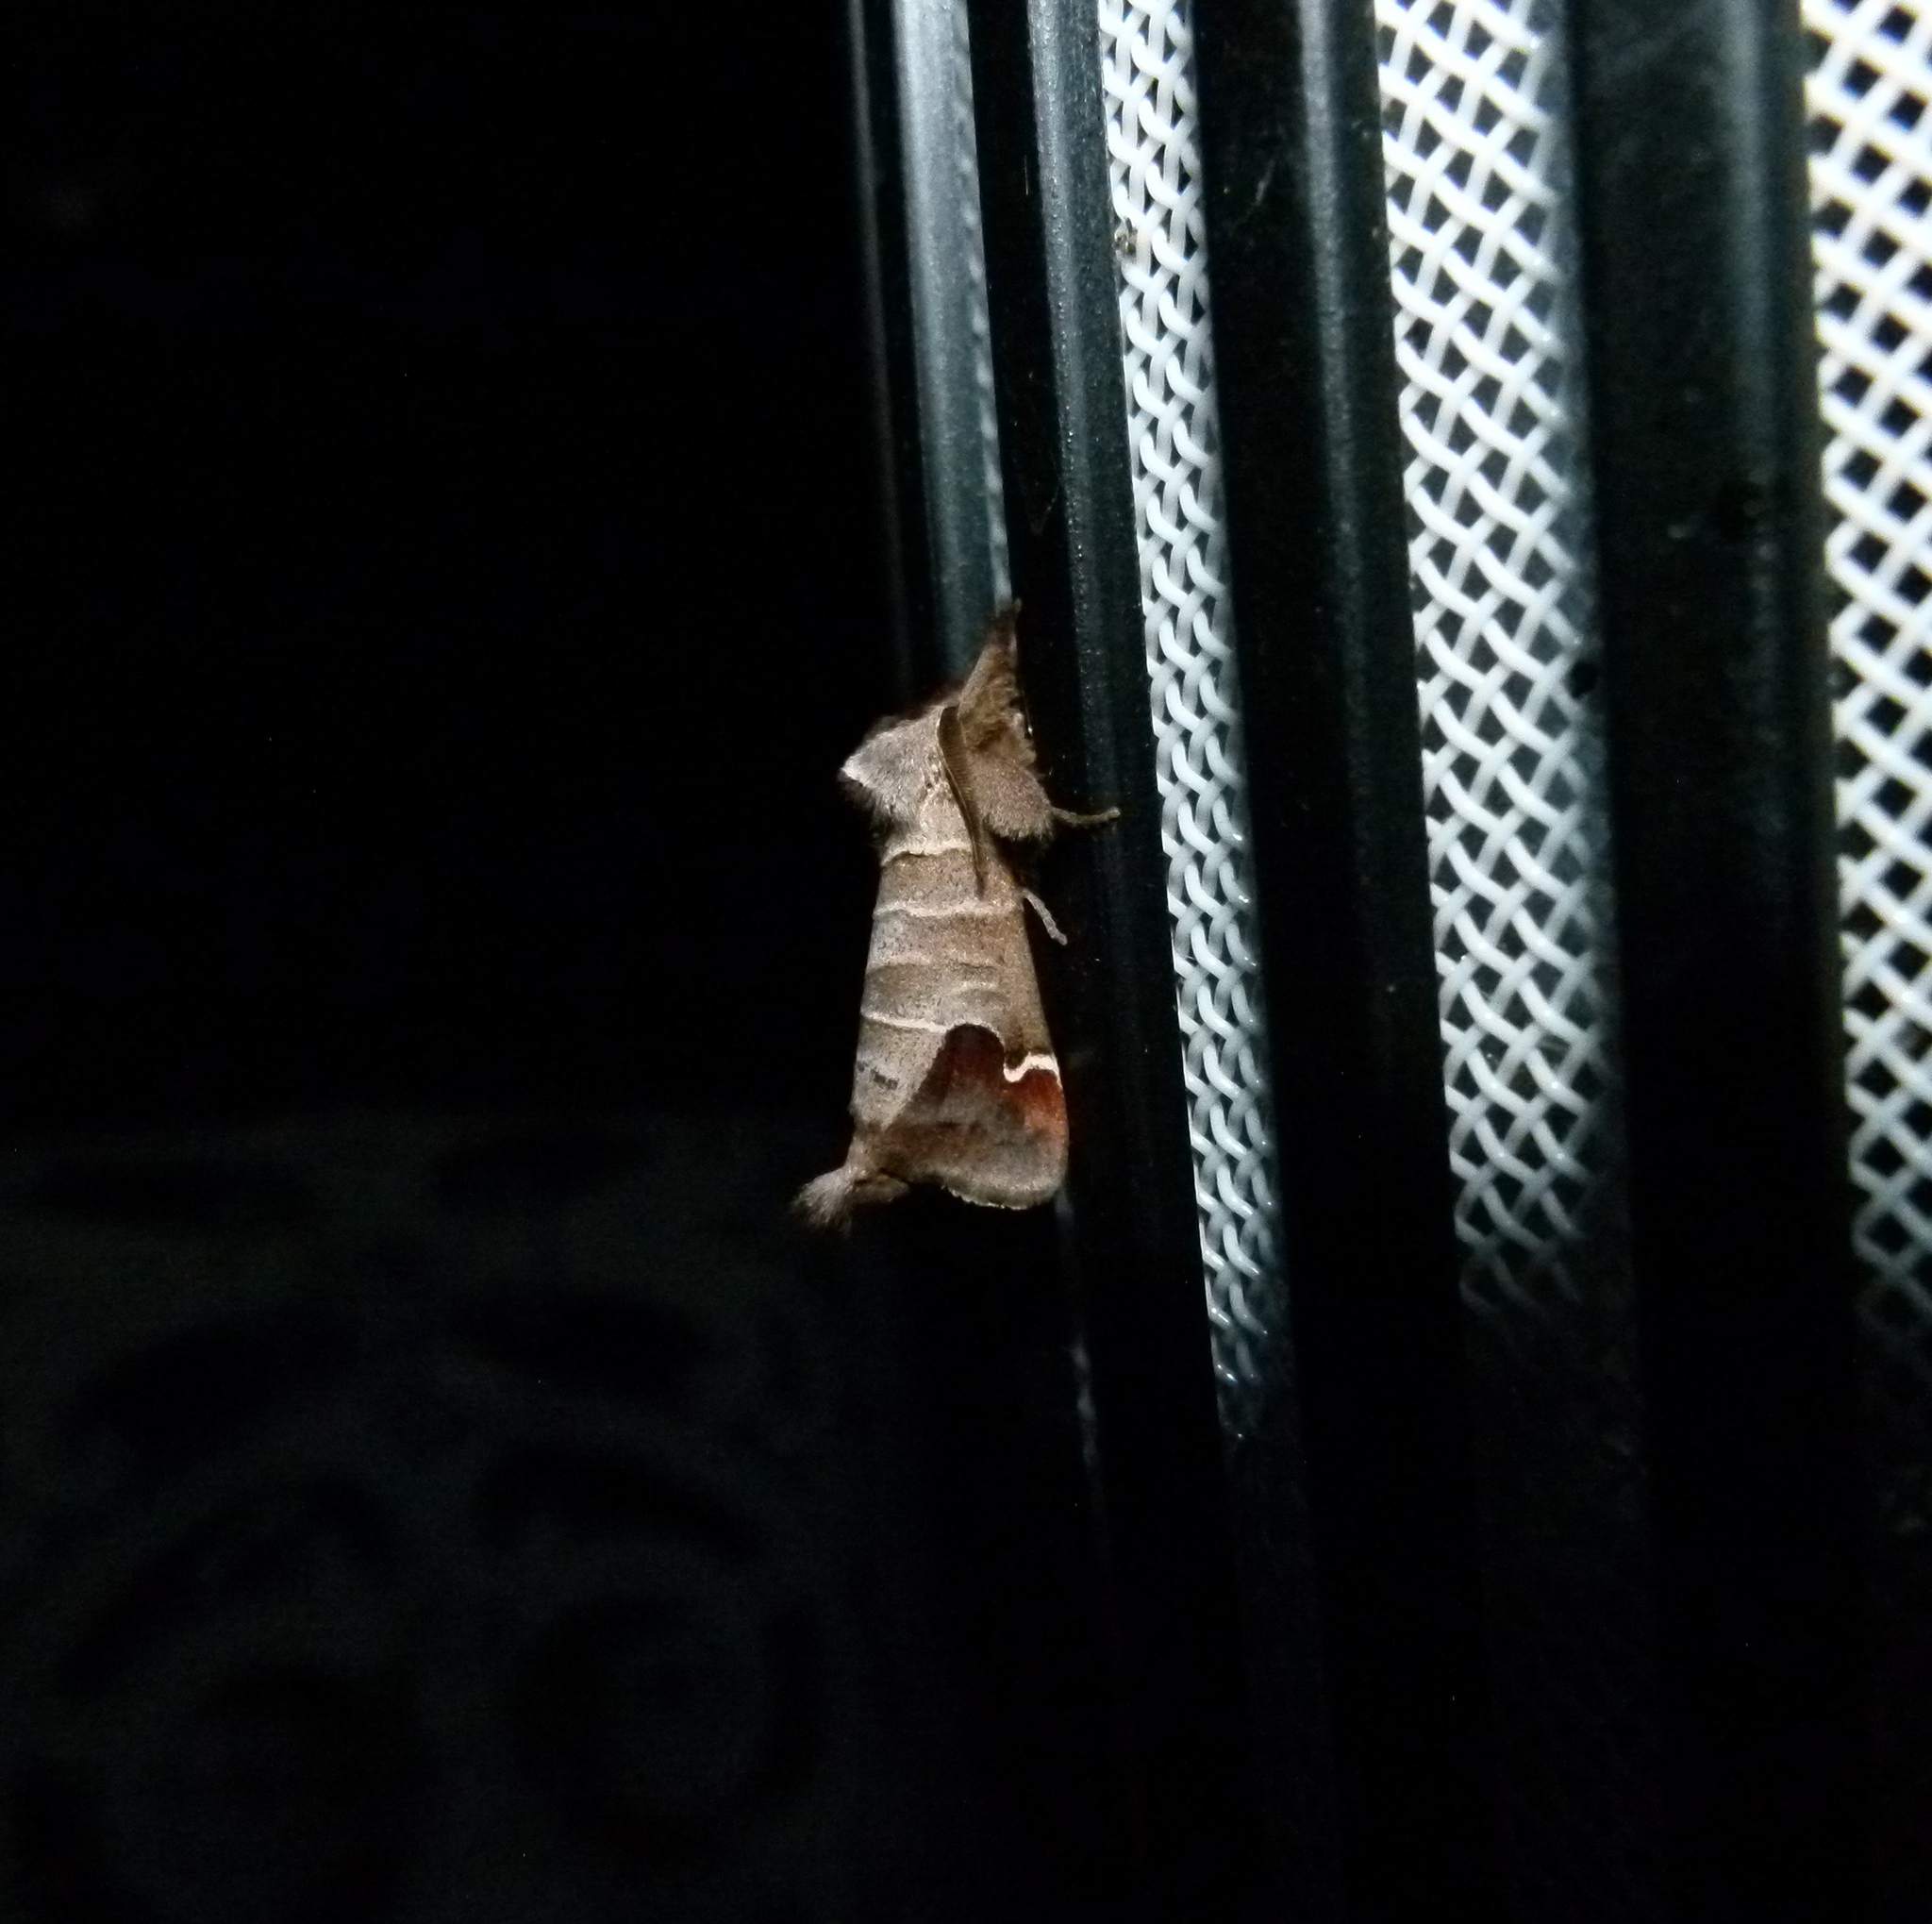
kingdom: Animalia
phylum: Arthropoda
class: Insecta
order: Lepidoptera
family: Notodontidae
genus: Clostera
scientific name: Clostera albosigma
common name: Sigmoid prominent
